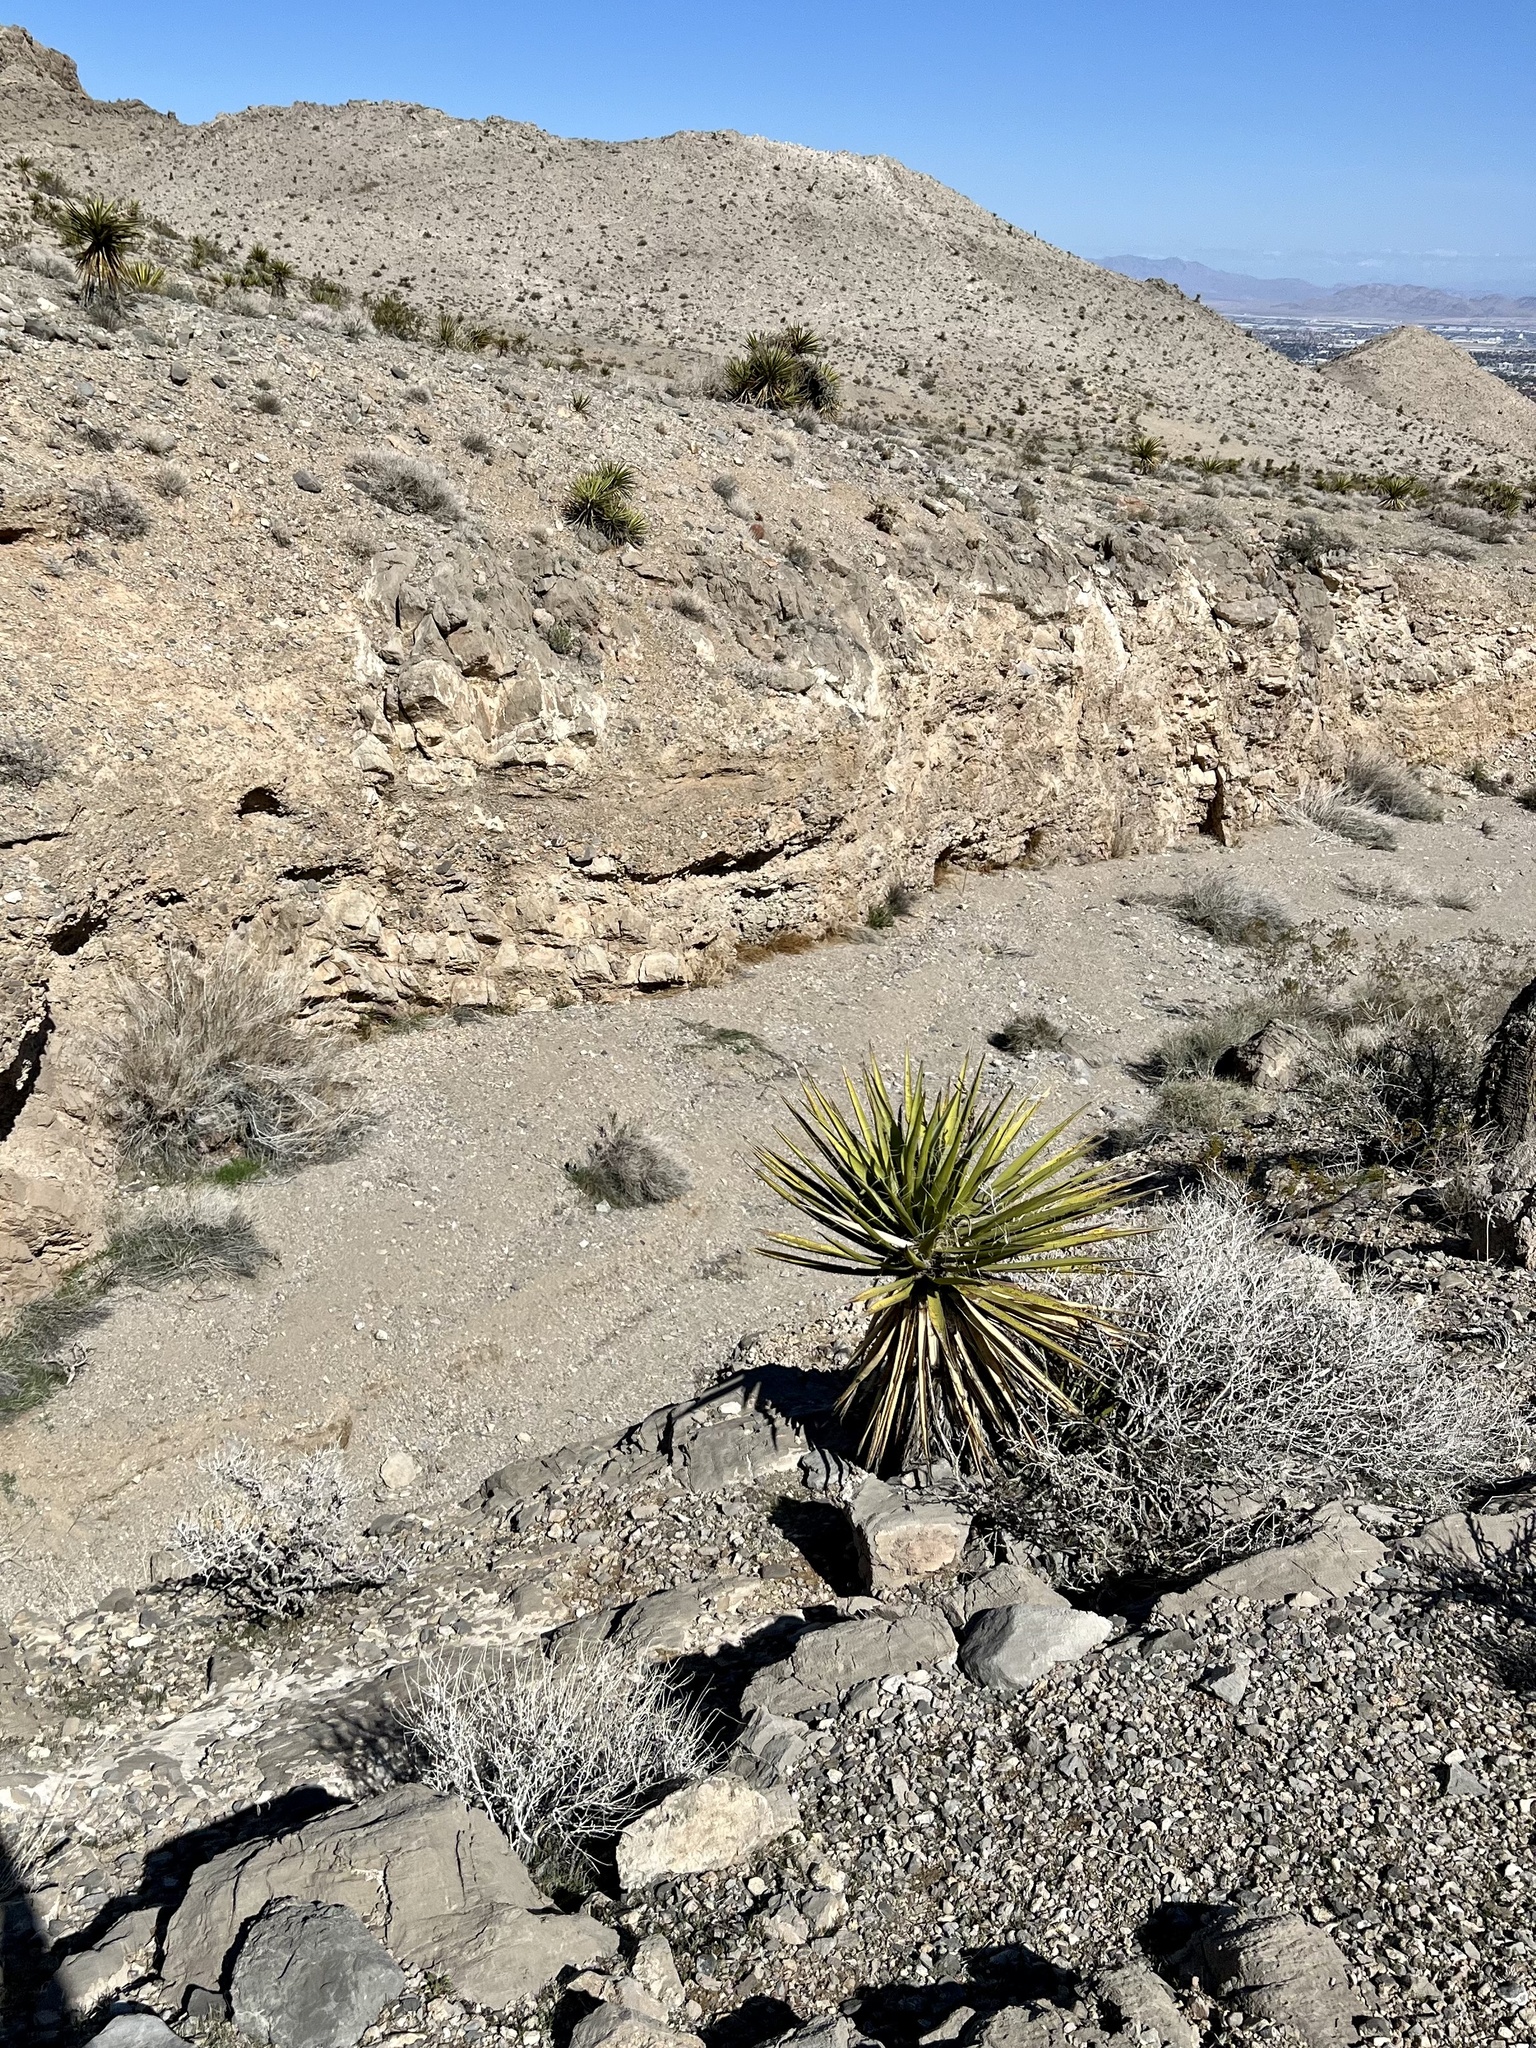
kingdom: Plantae
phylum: Tracheophyta
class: Liliopsida
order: Asparagales
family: Asparagaceae
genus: Yucca
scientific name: Yucca schidigera
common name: Mojave yucca
